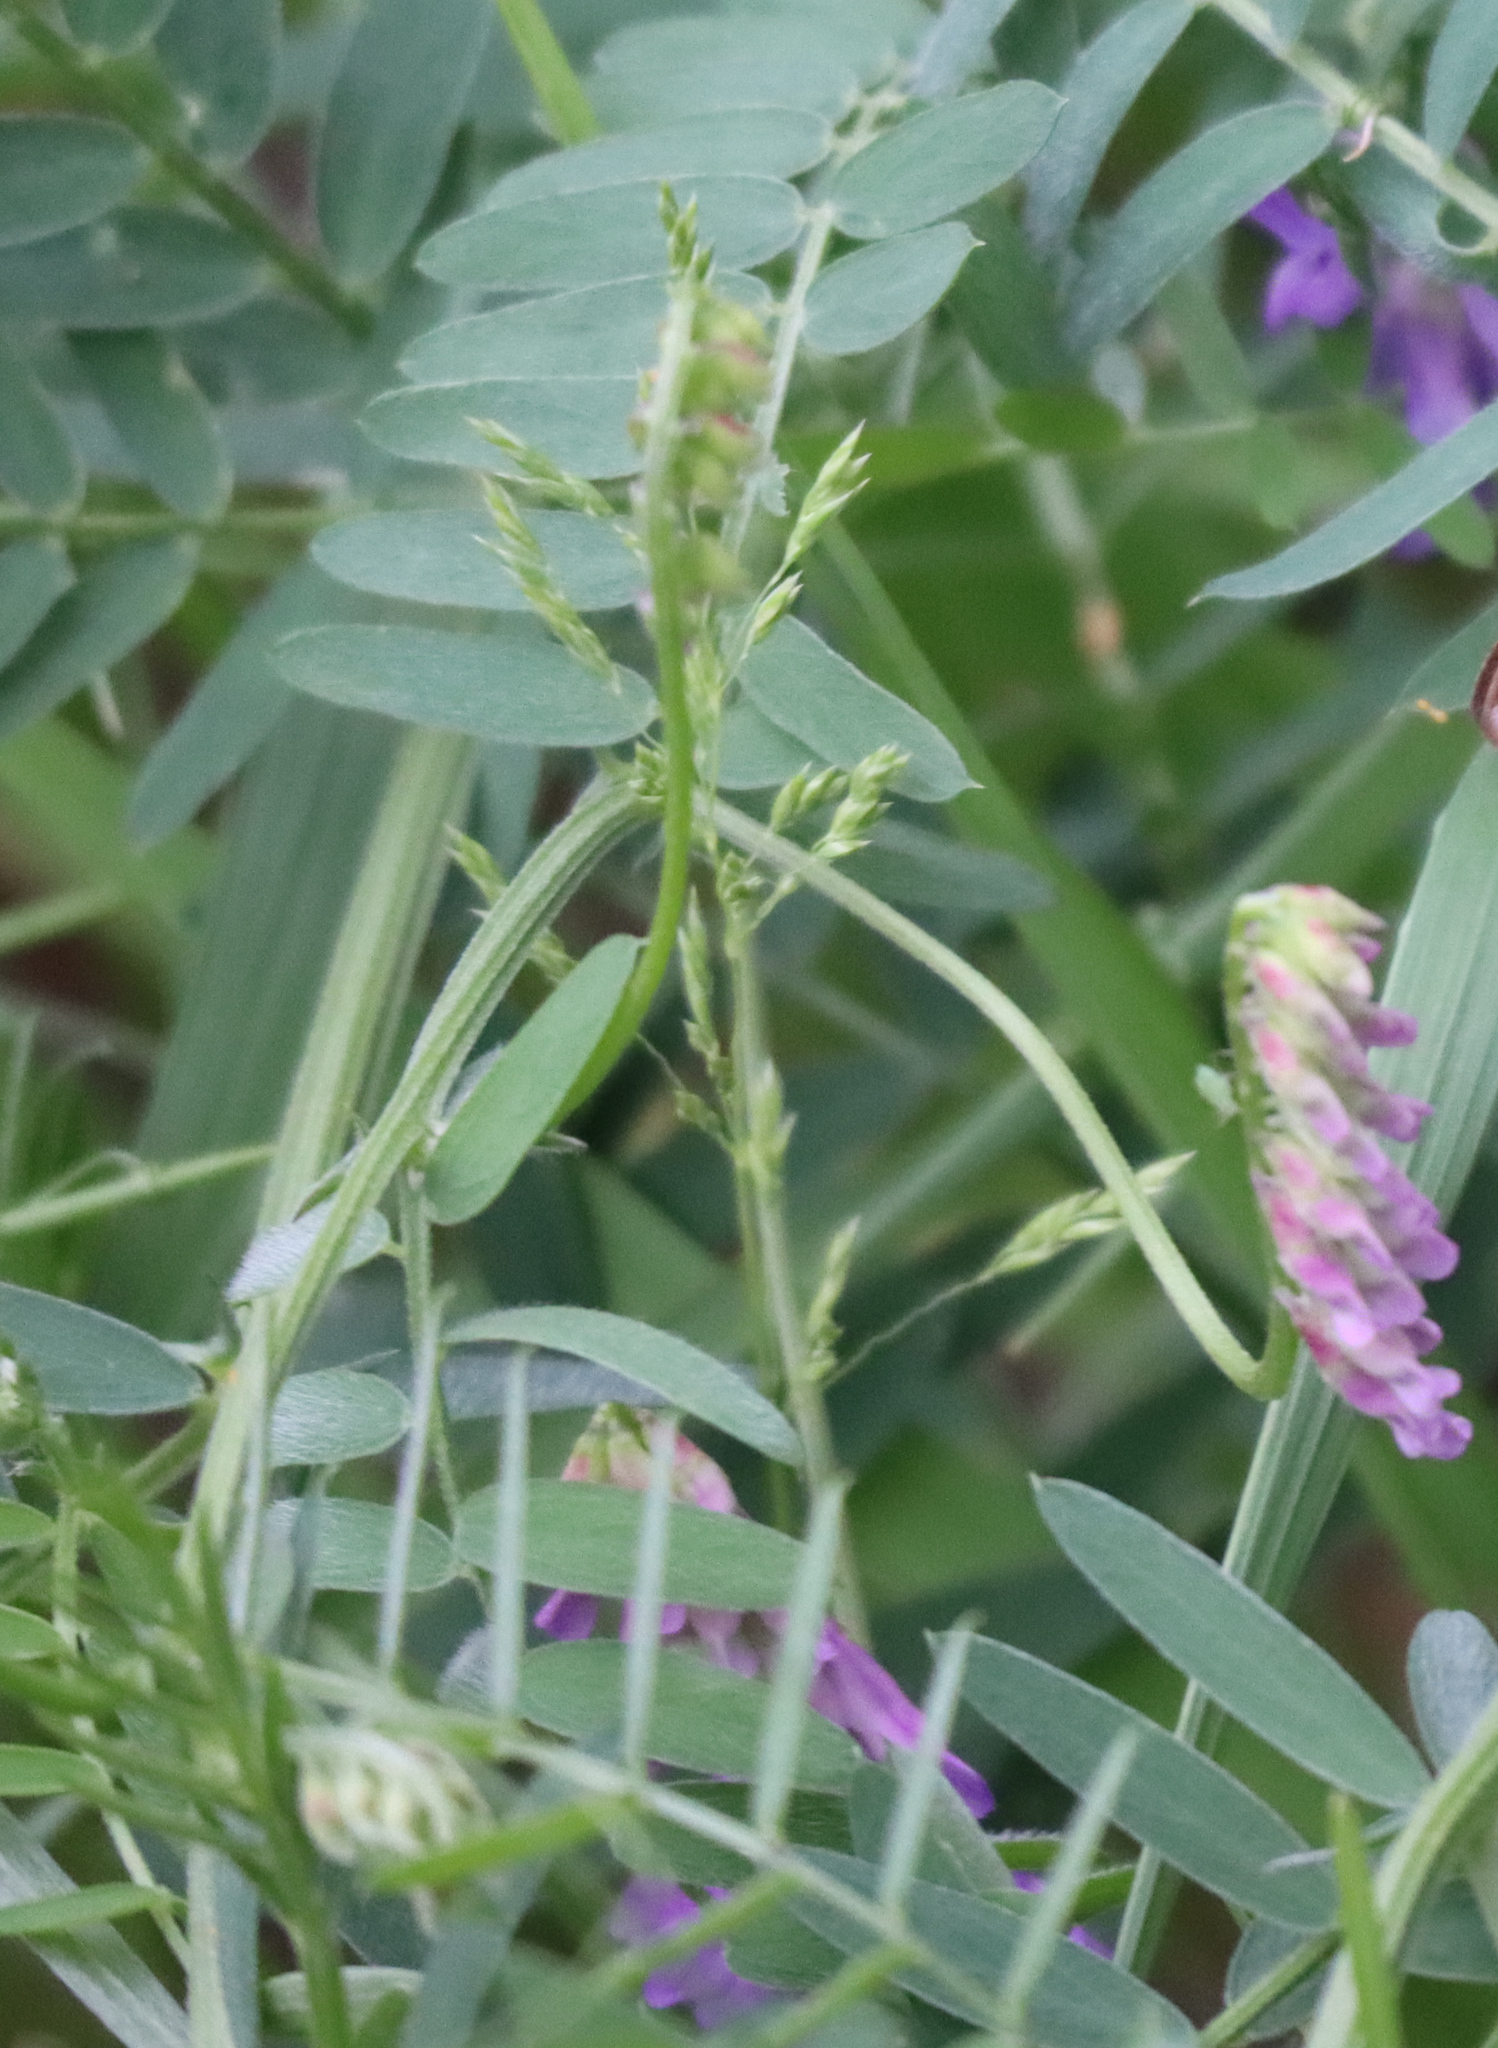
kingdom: Plantae
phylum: Tracheophyta
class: Magnoliopsida
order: Fabales
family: Fabaceae
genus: Vicia
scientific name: Vicia cracca
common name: Bird vetch
